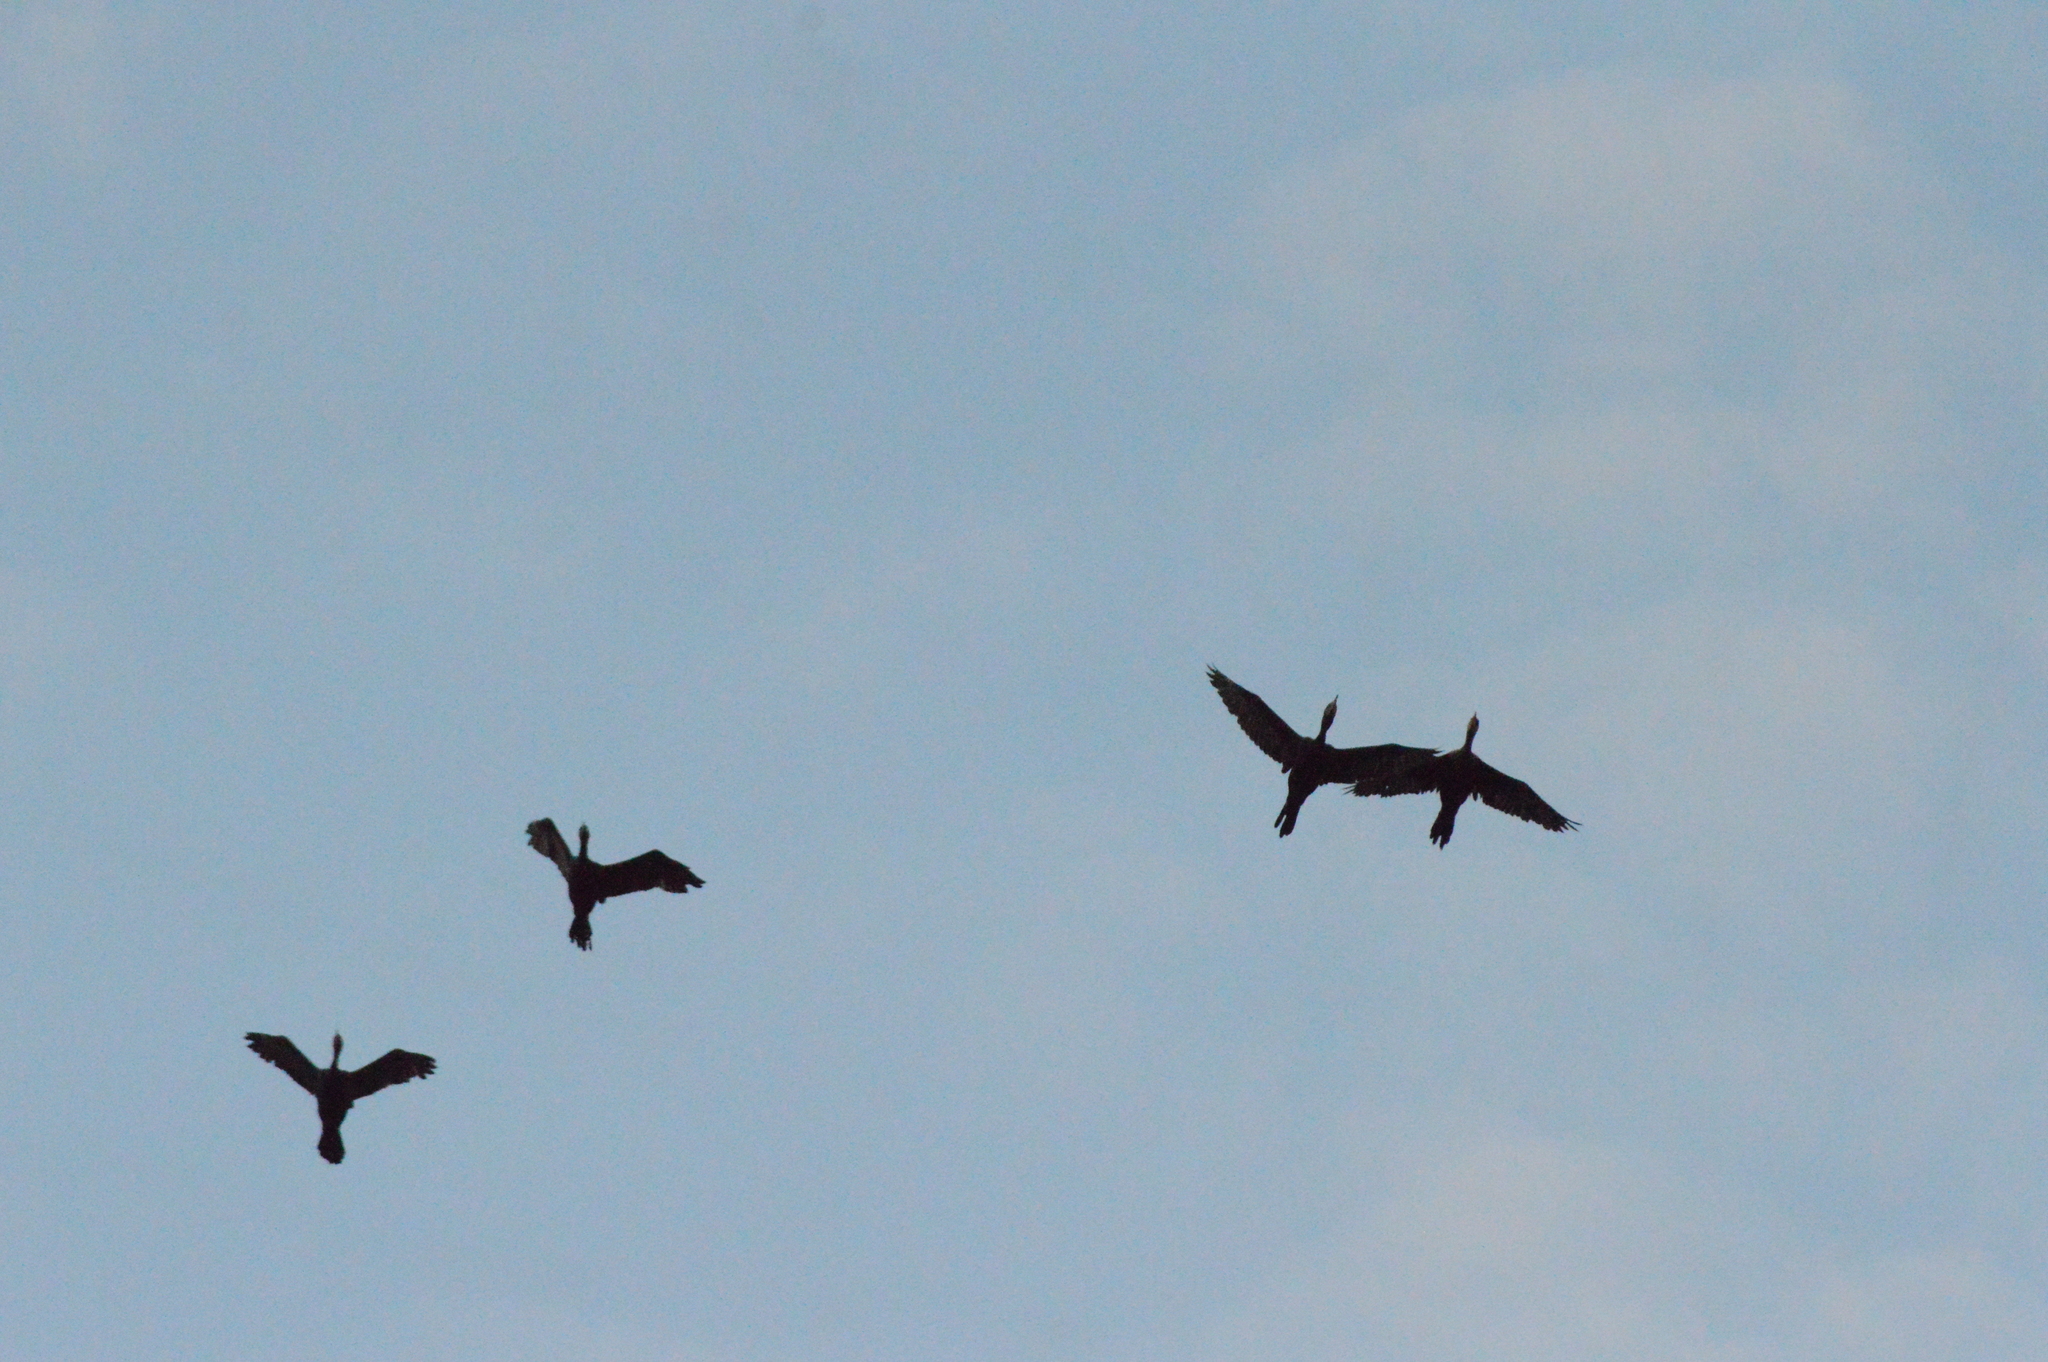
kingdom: Animalia
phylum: Chordata
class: Aves
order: Suliformes
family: Phalacrocoracidae
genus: Phalacrocorax
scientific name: Phalacrocorax brasilianus
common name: Neotropic cormorant
